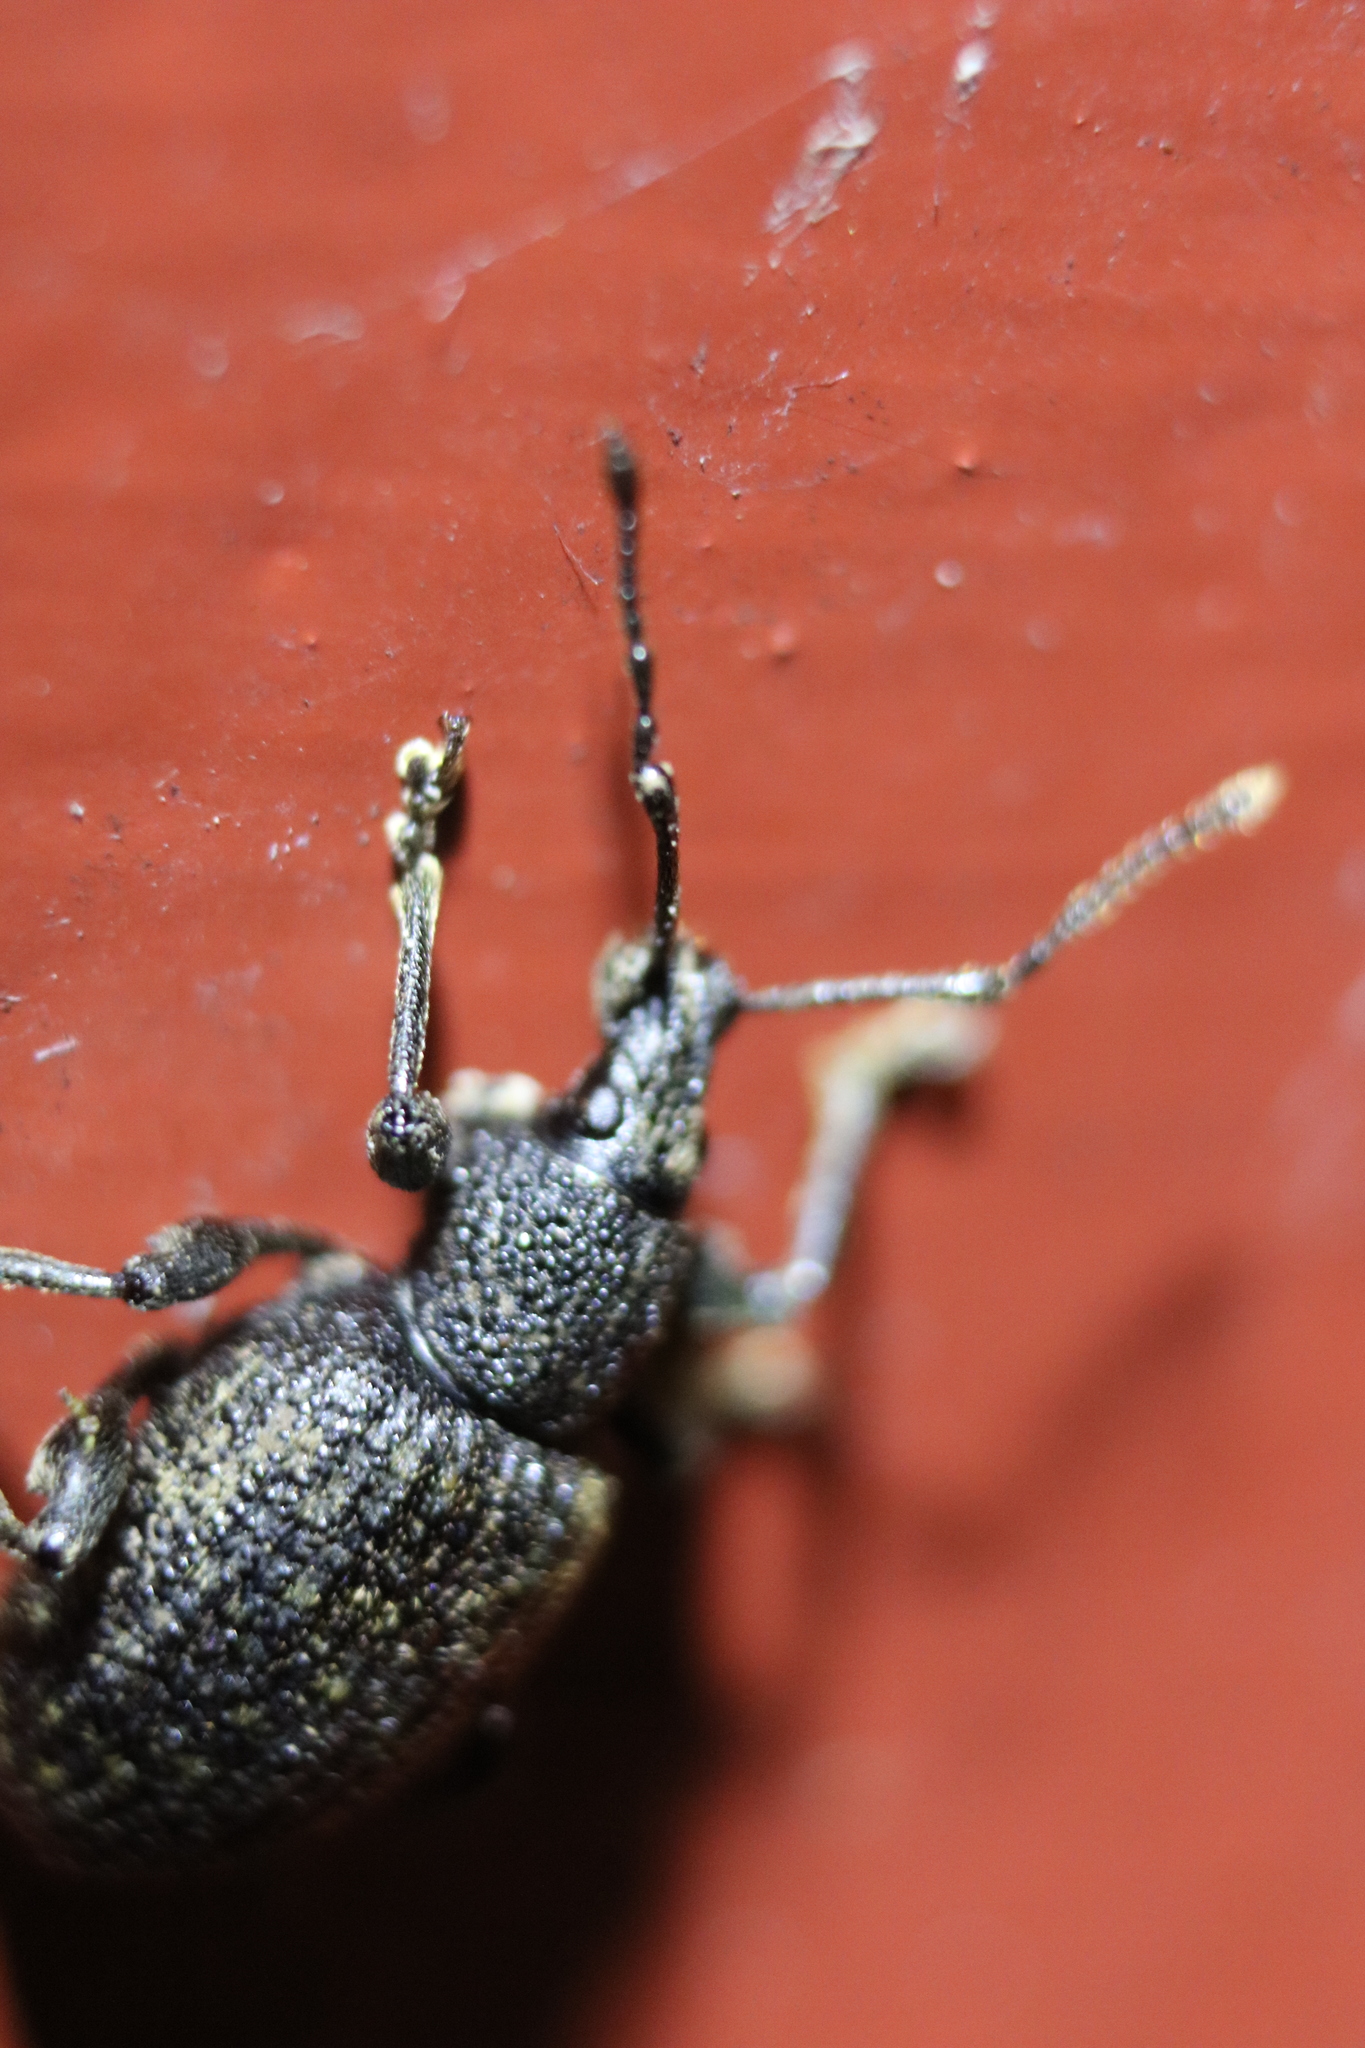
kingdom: Animalia
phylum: Arthropoda
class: Insecta
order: Coleoptera
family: Curculionidae
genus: Otiorhynchus
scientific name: Otiorhynchus sulcatus
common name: Black vine weevil
